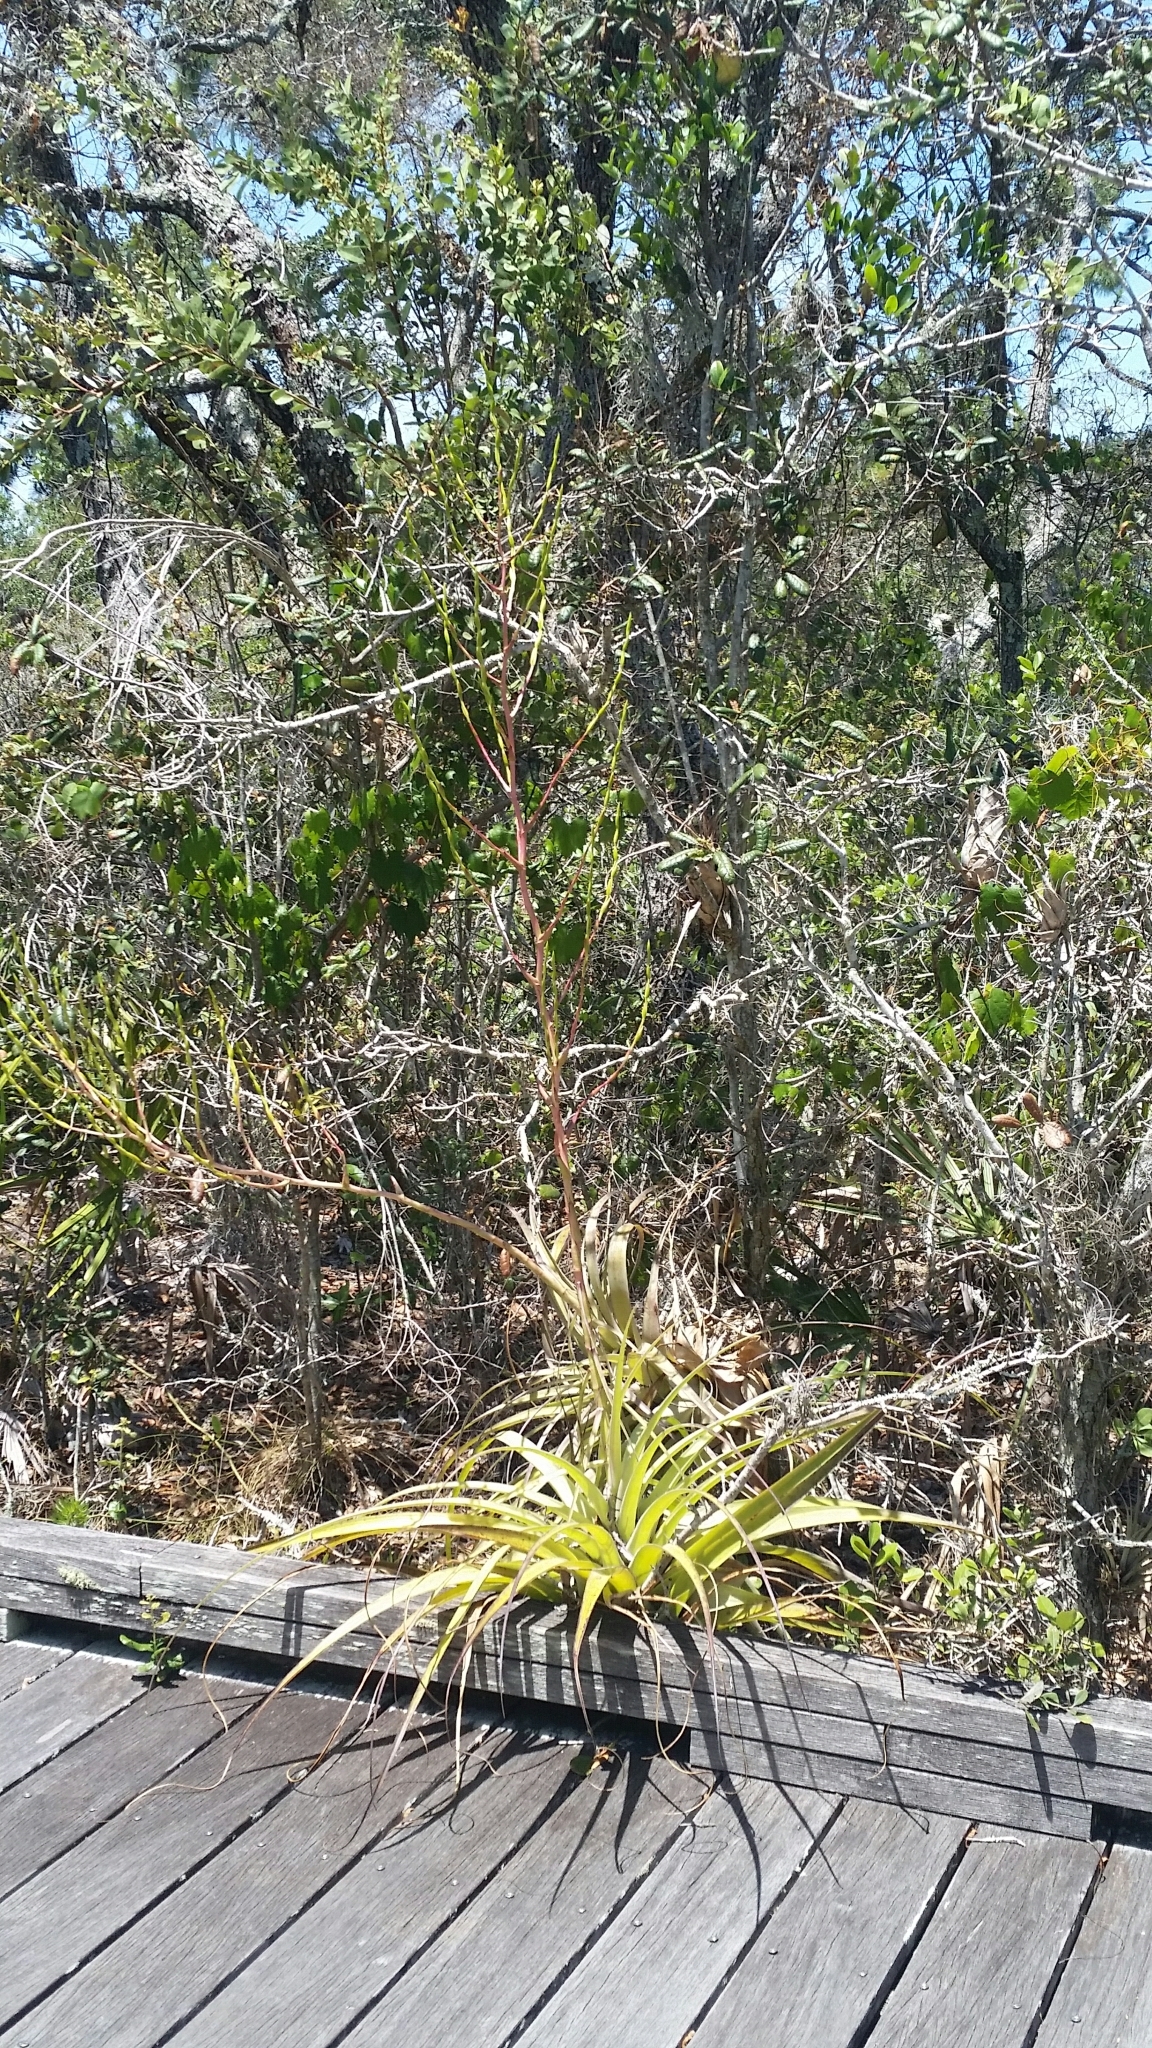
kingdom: Plantae
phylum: Tracheophyta
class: Liliopsida
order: Poales
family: Bromeliaceae
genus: Tillandsia
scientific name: Tillandsia utriculata
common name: Wild pine
